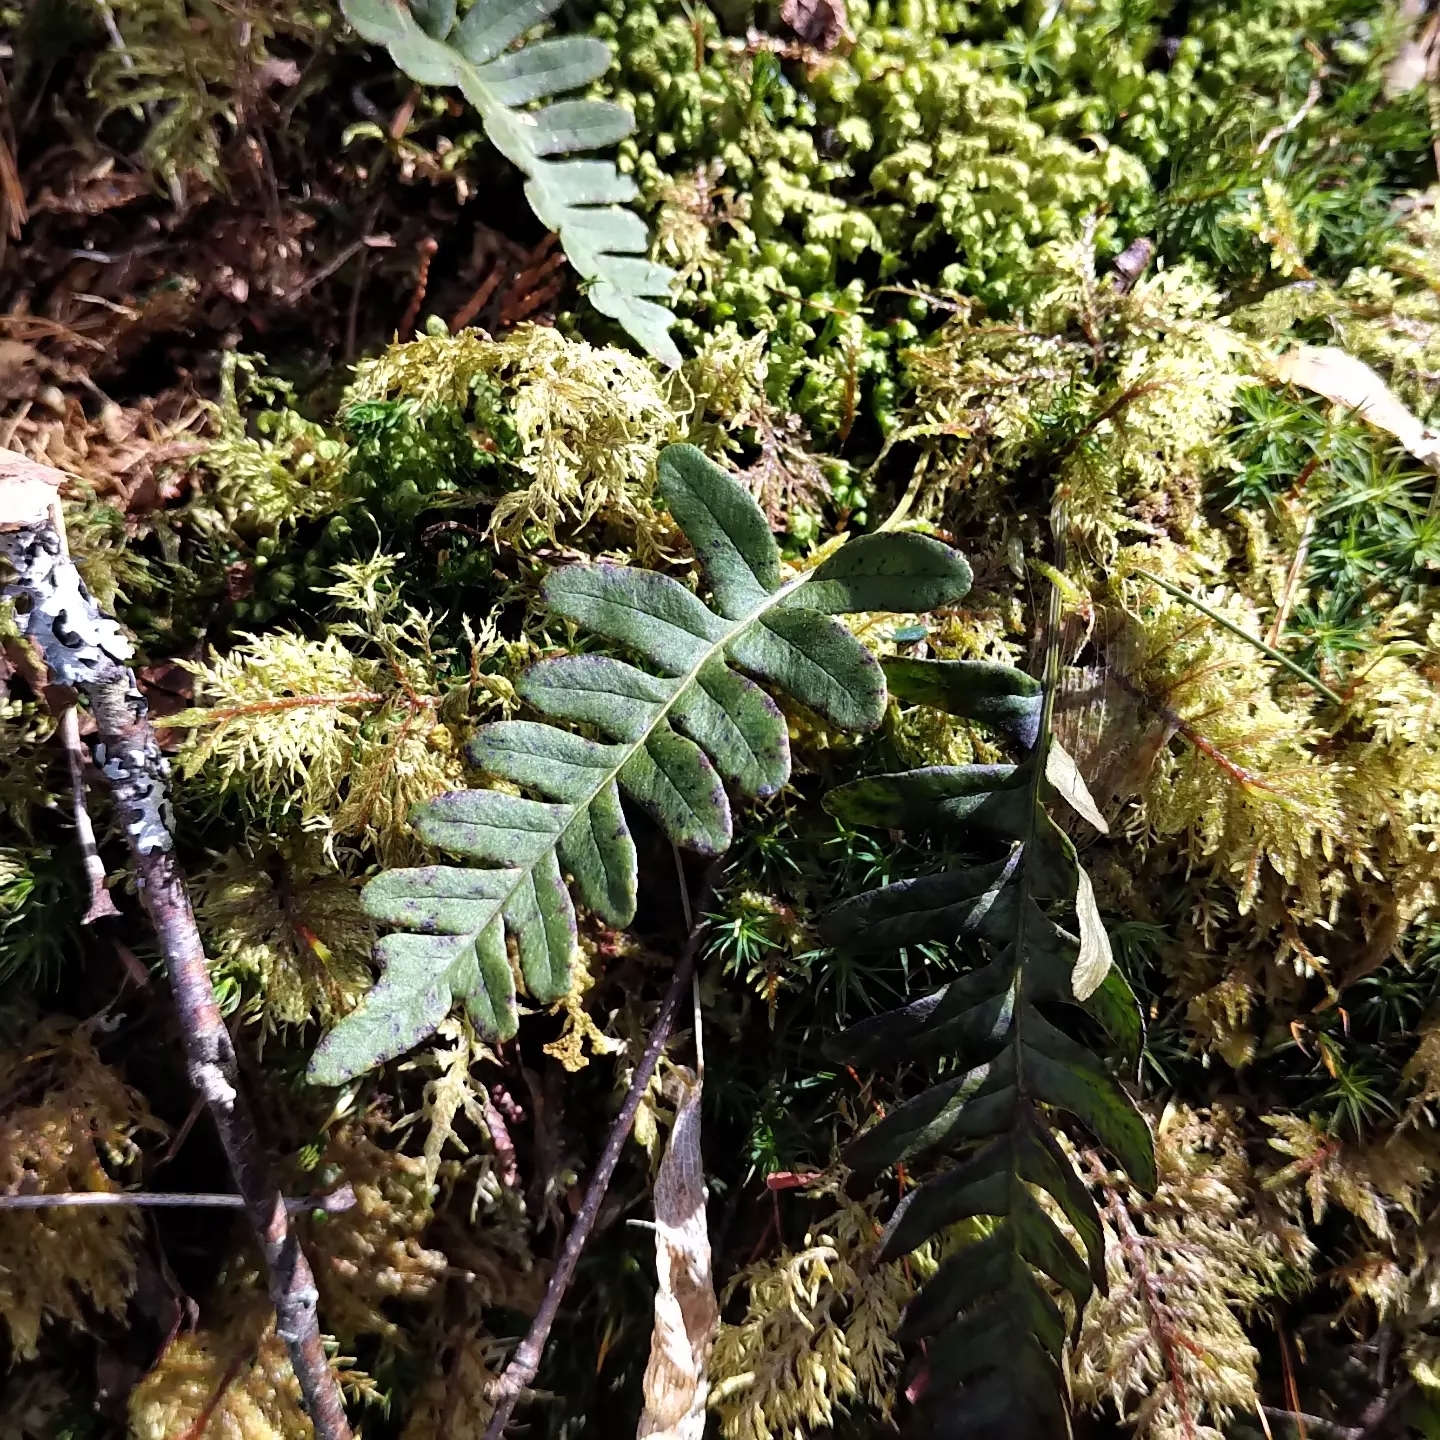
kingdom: Plantae
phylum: Tracheophyta
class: Polypodiopsida
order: Polypodiales
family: Polypodiaceae
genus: Polypodium
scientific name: Polypodium virginianum
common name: American wall fern
